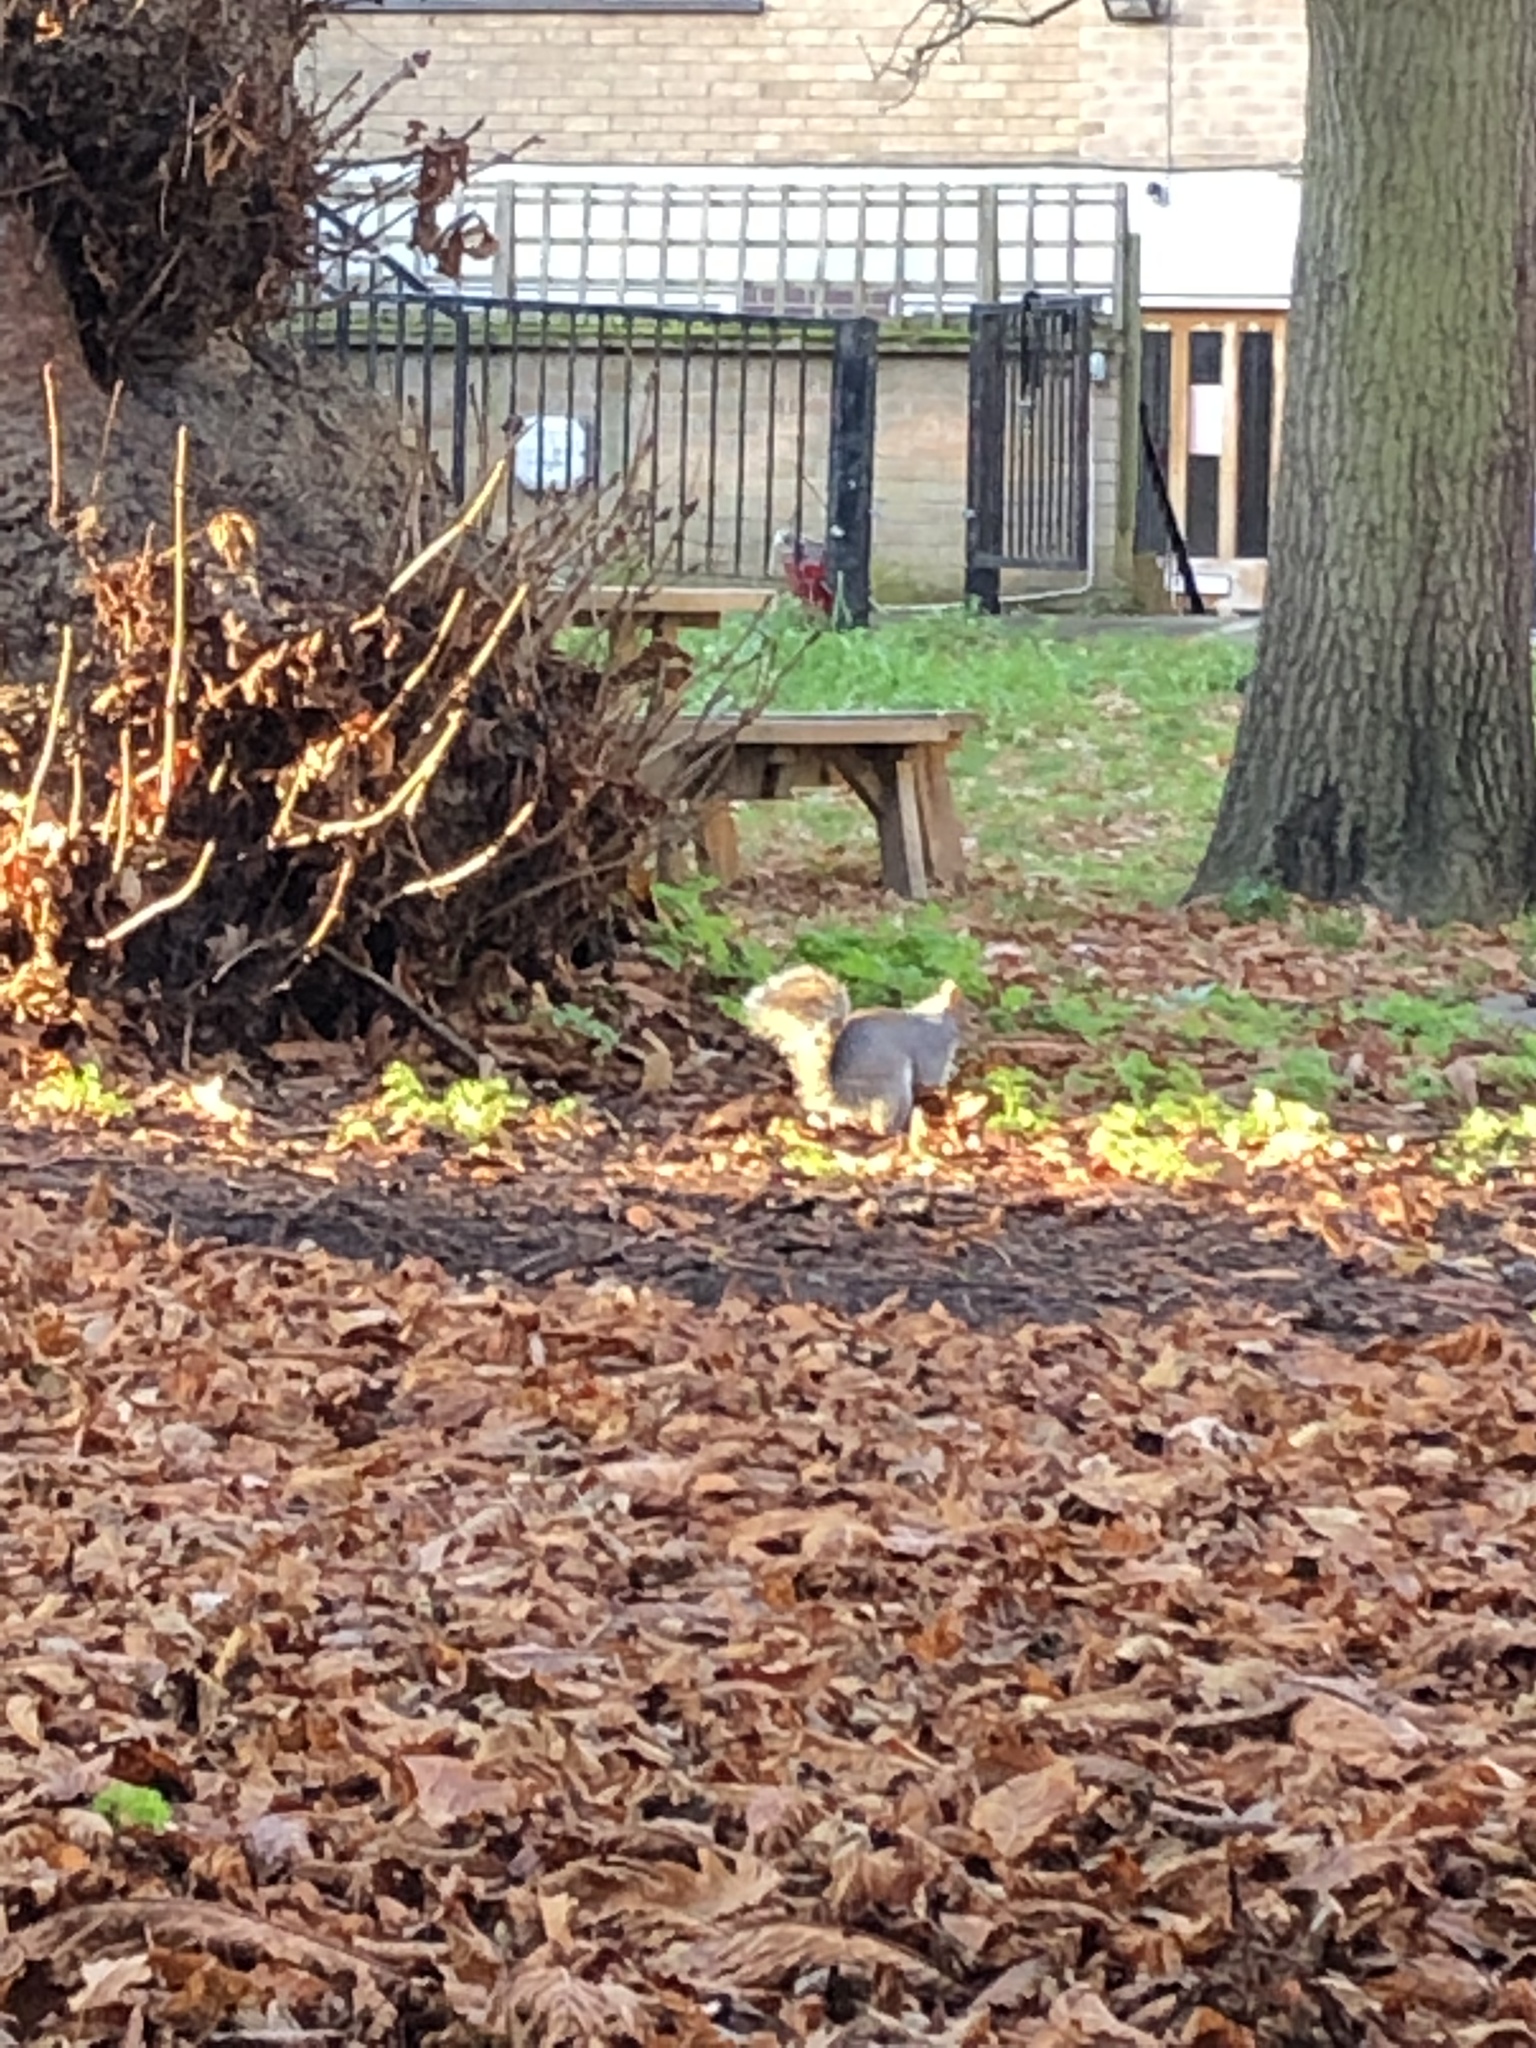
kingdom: Animalia
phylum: Chordata
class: Mammalia
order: Rodentia
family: Sciuridae
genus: Sciurus
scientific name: Sciurus carolinensis
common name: Eastern gray squirrel
